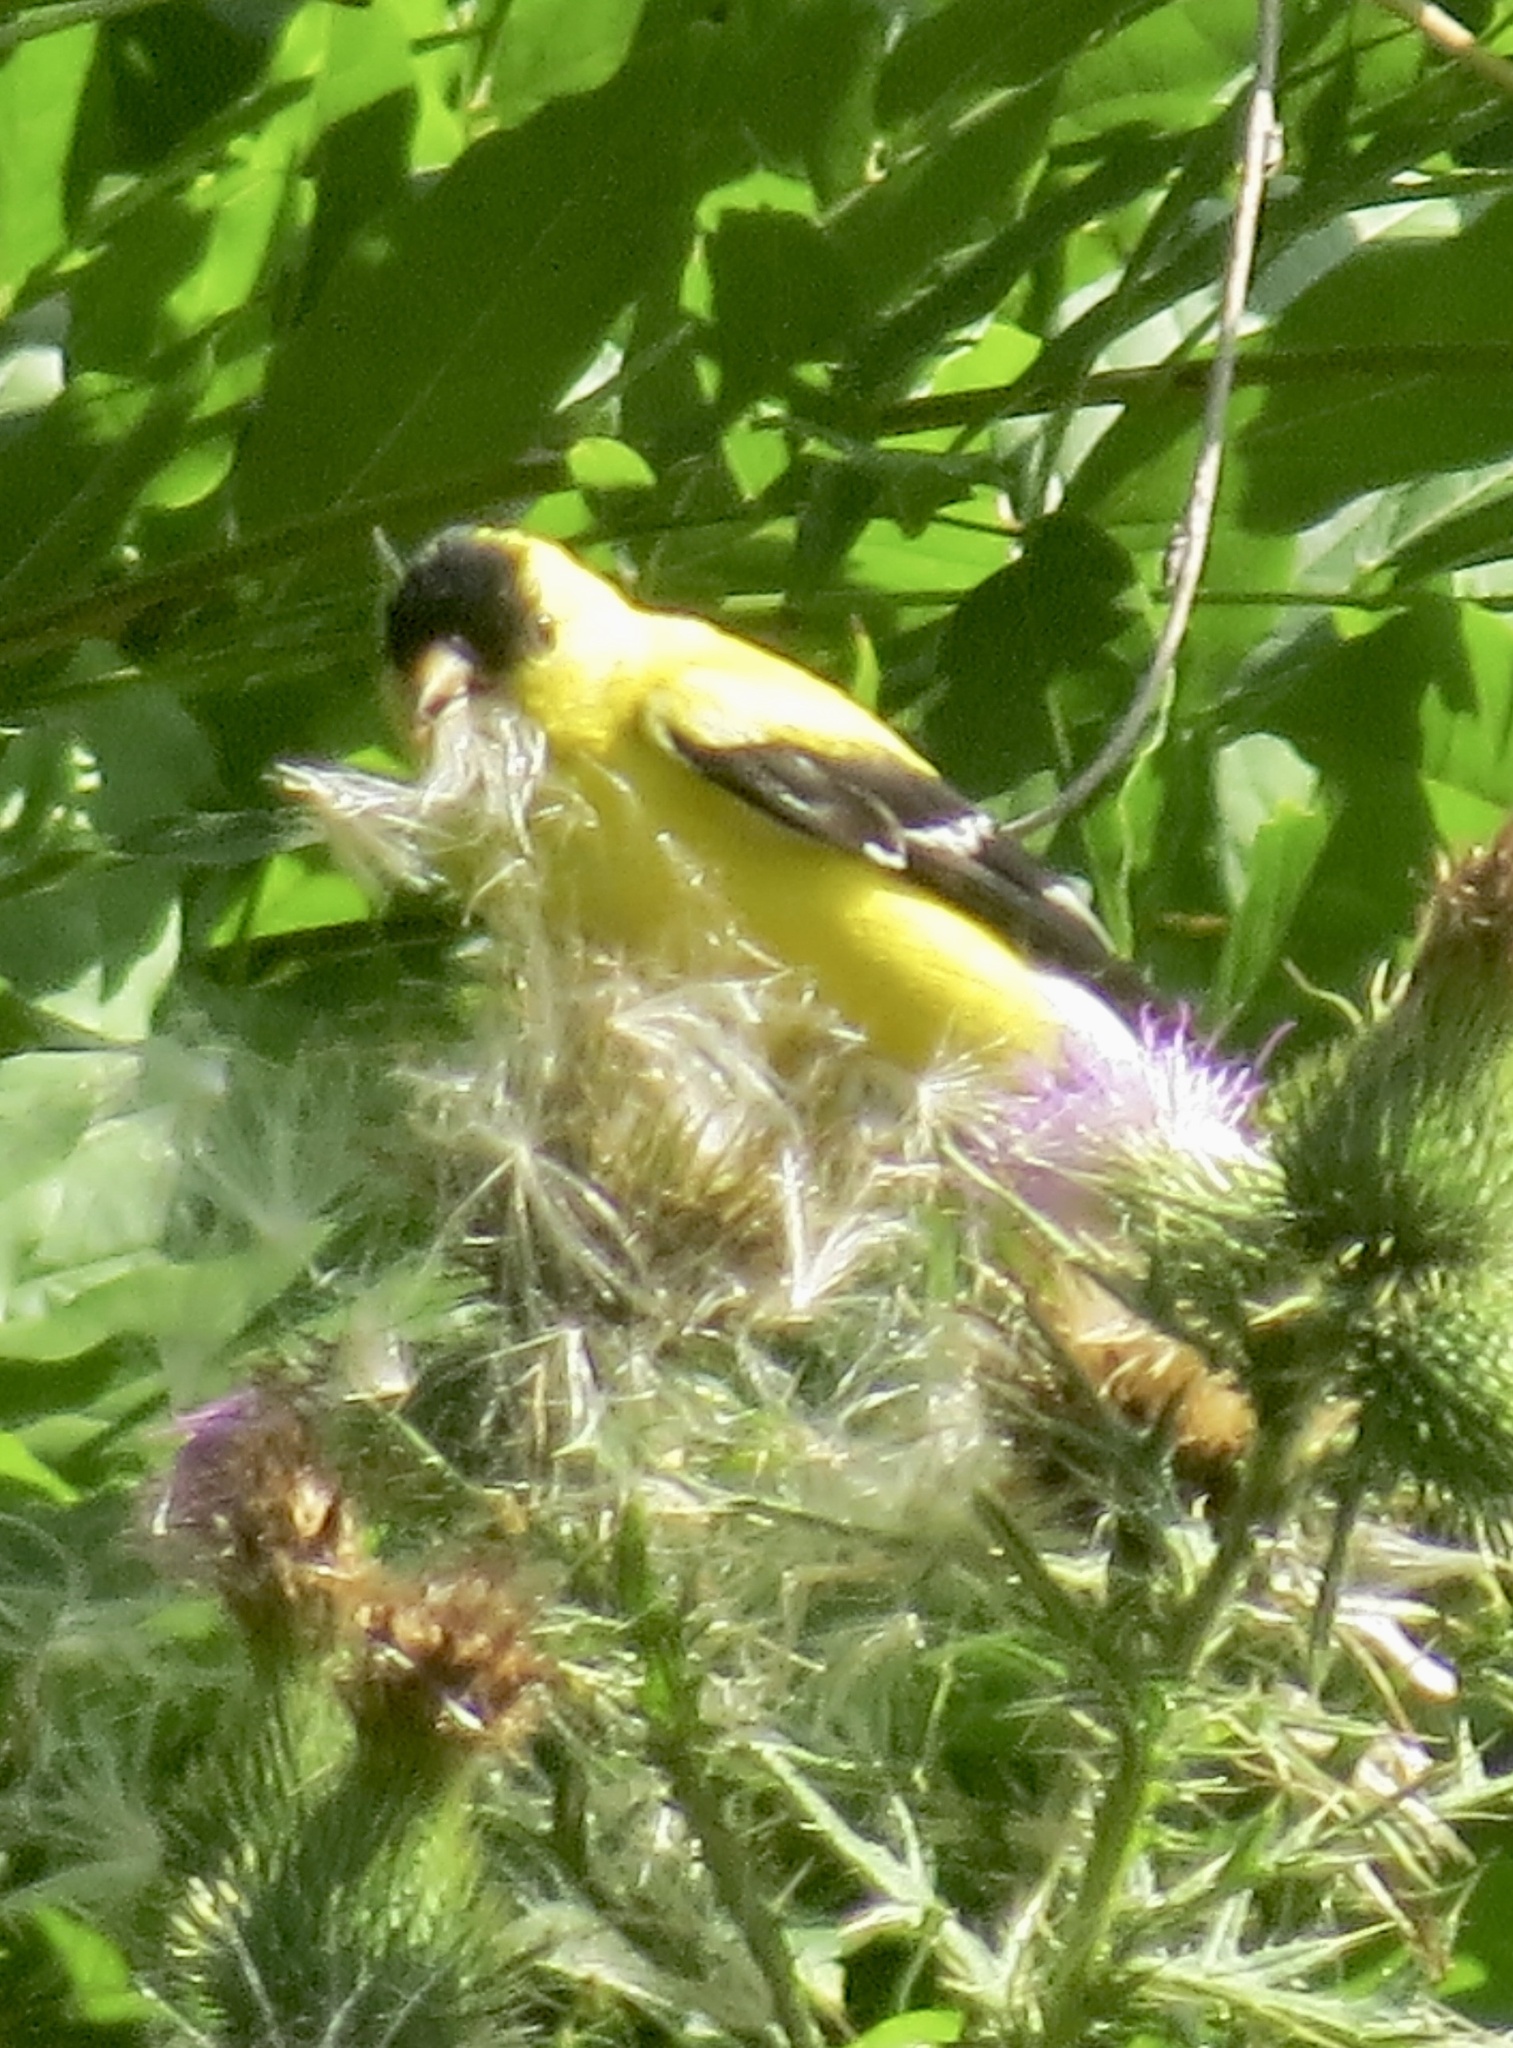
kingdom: Animalia
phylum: Chordata
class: Aves
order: Passeriformes
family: Fringillidae
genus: Spinus
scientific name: Spinus tristis
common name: American goldfinch
